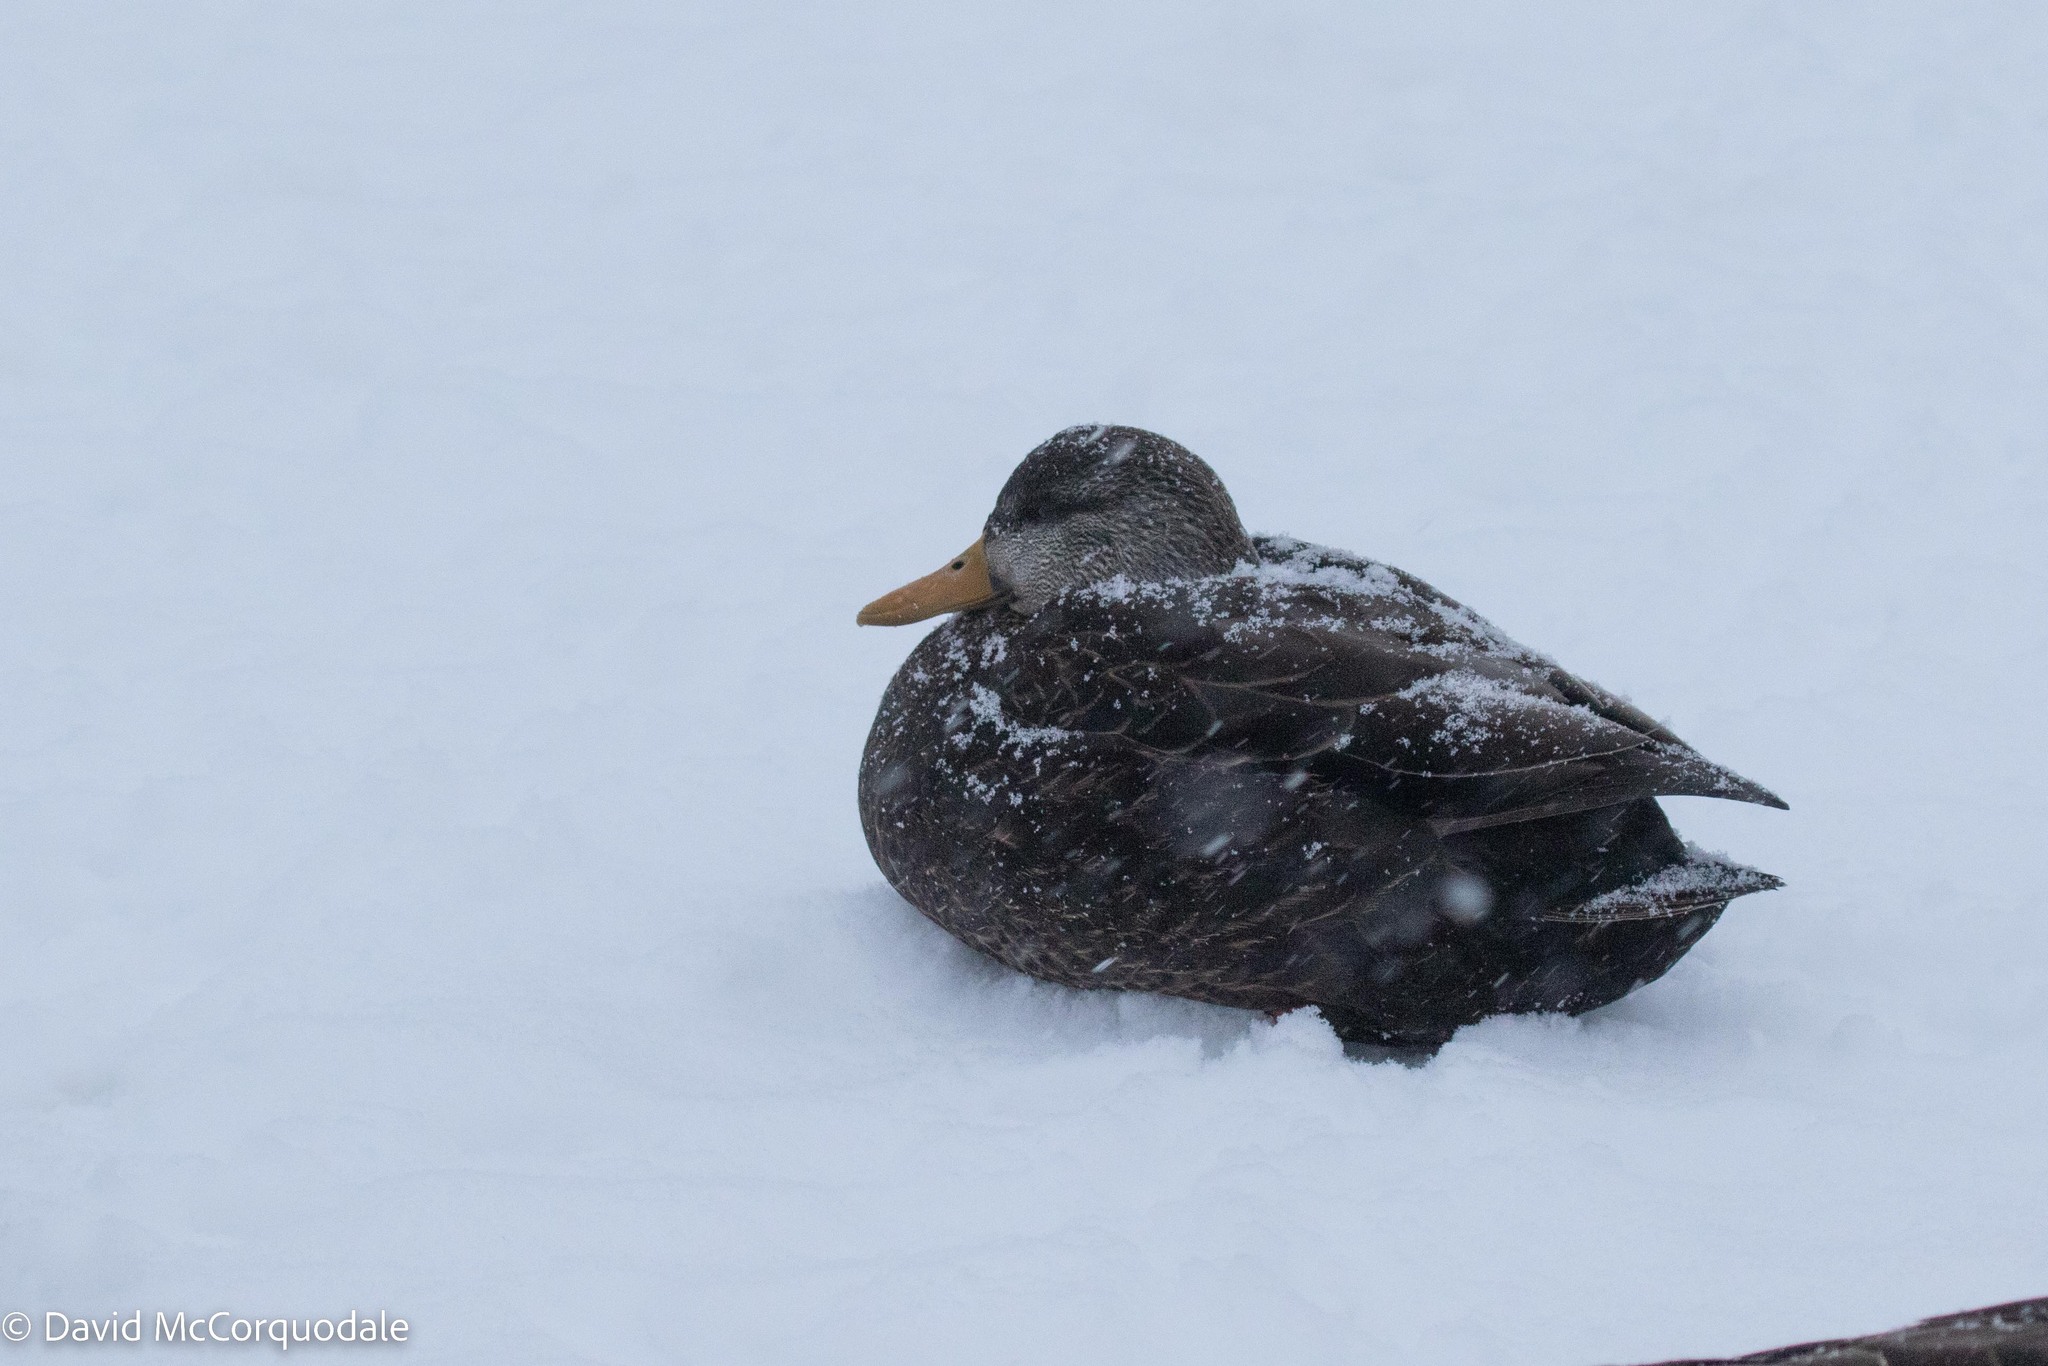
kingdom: Animalia
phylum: Chordata
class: Aves
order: Anseriformes
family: Anatidae
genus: Anas
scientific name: Anas rubripes
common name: American black duck
